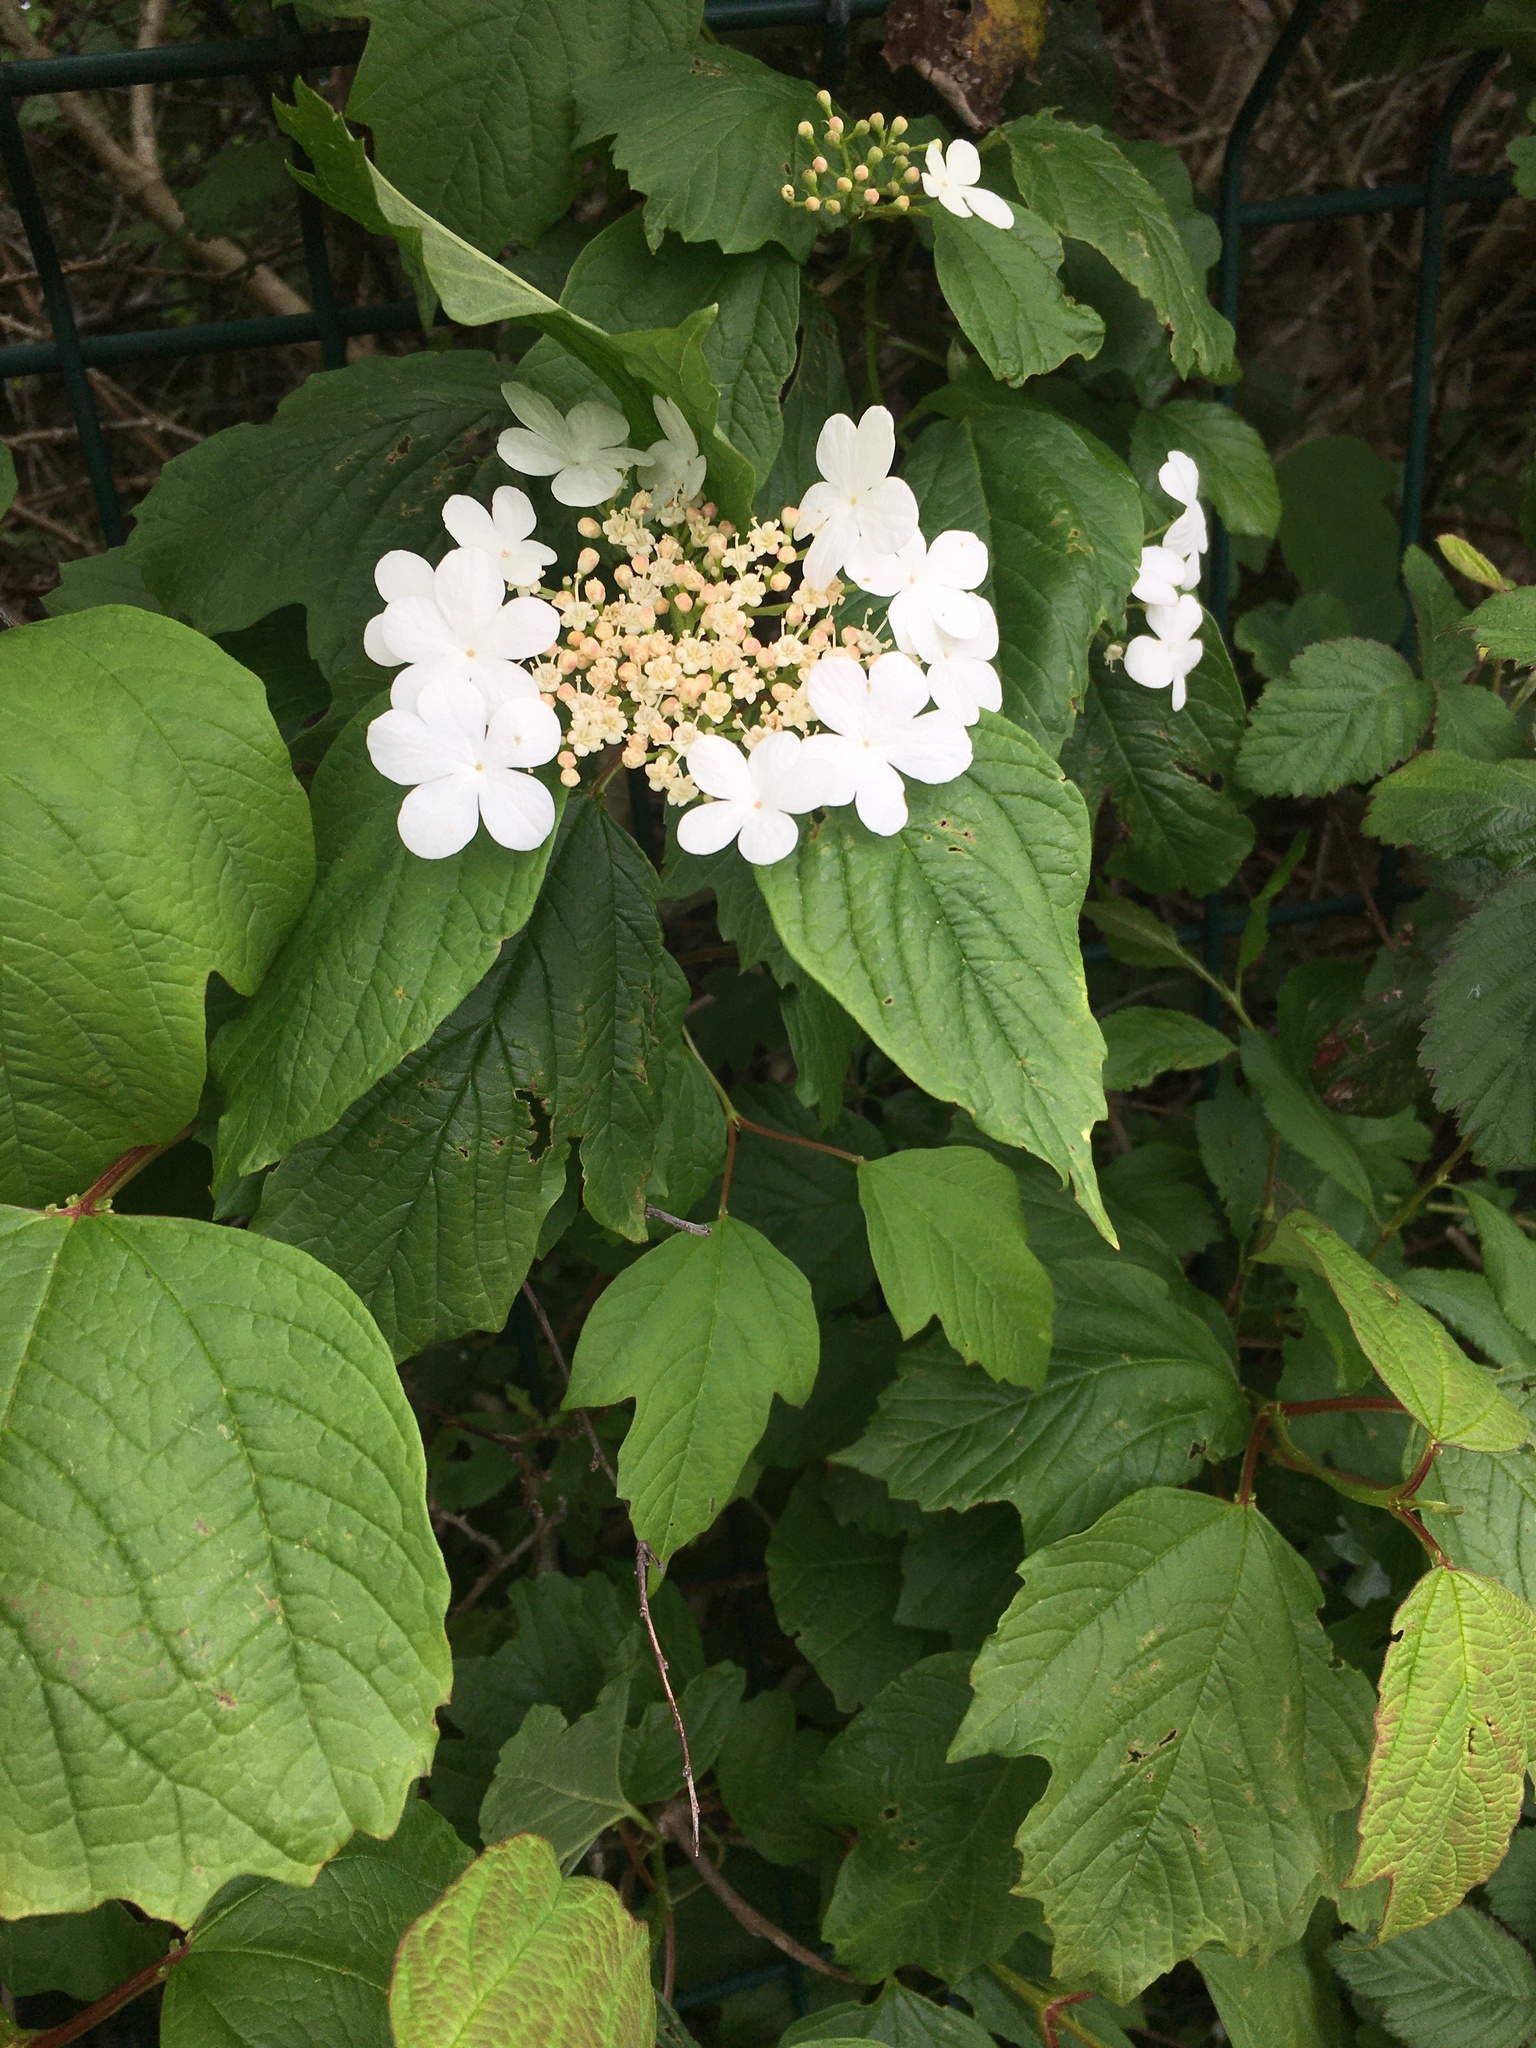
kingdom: Plantae
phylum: Tracheophyta
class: Magnoliopsida
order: Dipsacales
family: Viburnaceae
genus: Viburnum
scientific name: Viburnum opulus
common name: Guelder-rose
